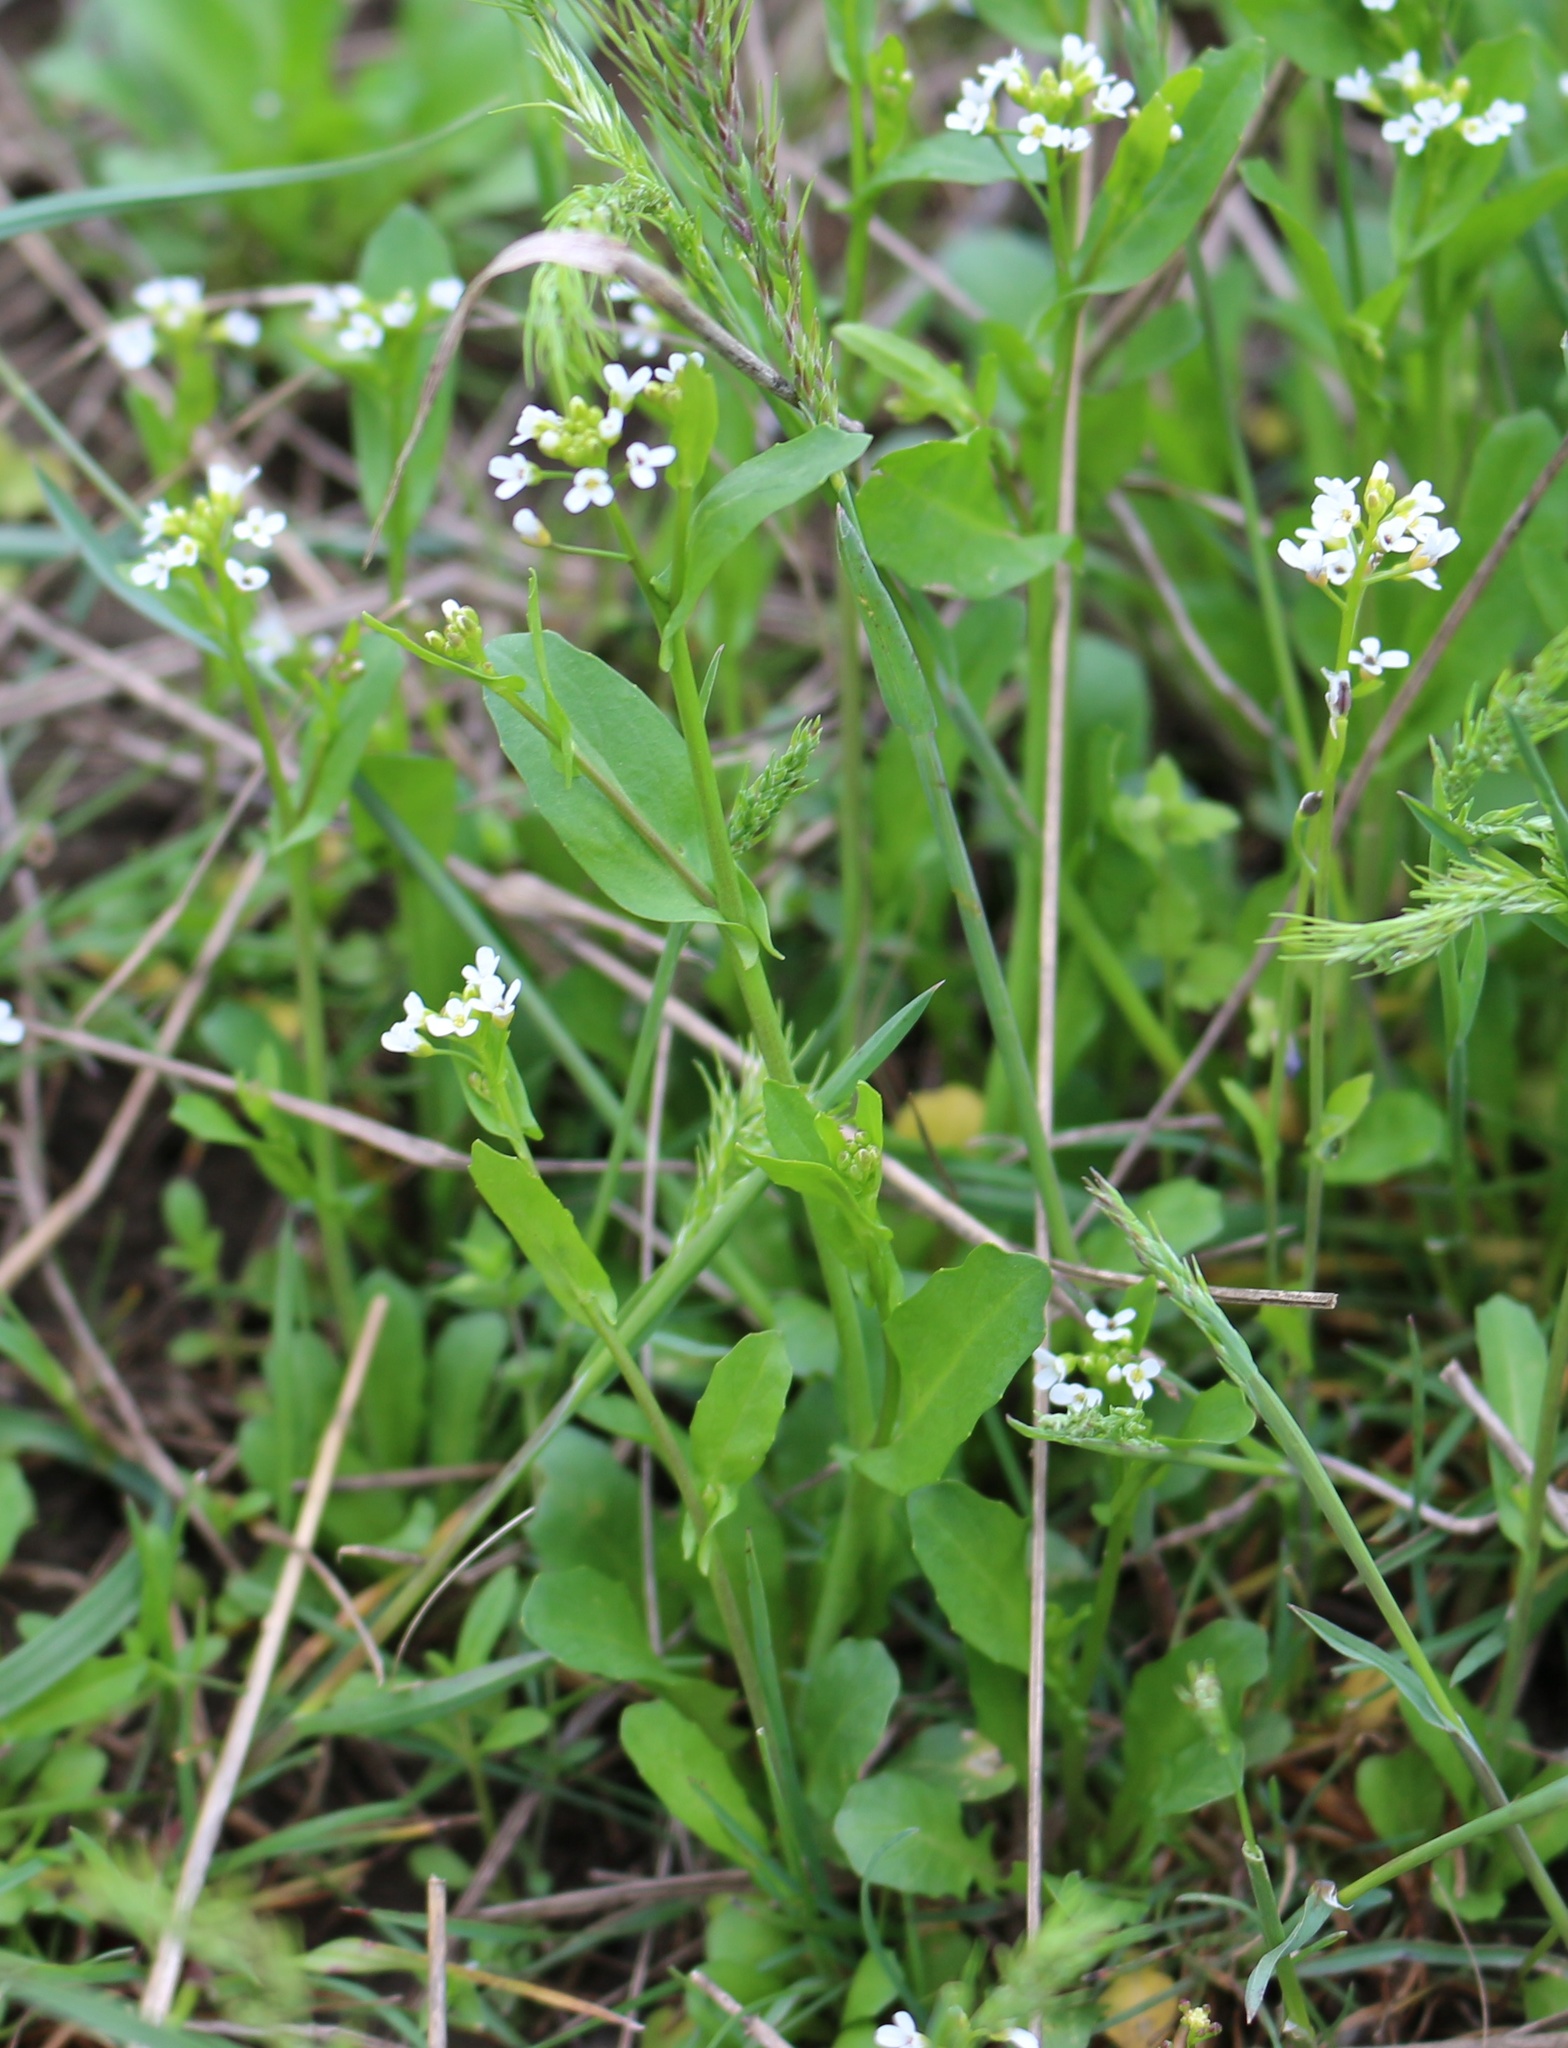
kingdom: Plantae
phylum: Tracheophyta
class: Magnoliopsida
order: Brassicales
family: Brassicaceae
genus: Calepina
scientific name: Calepina irregularis
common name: White ballmustard
